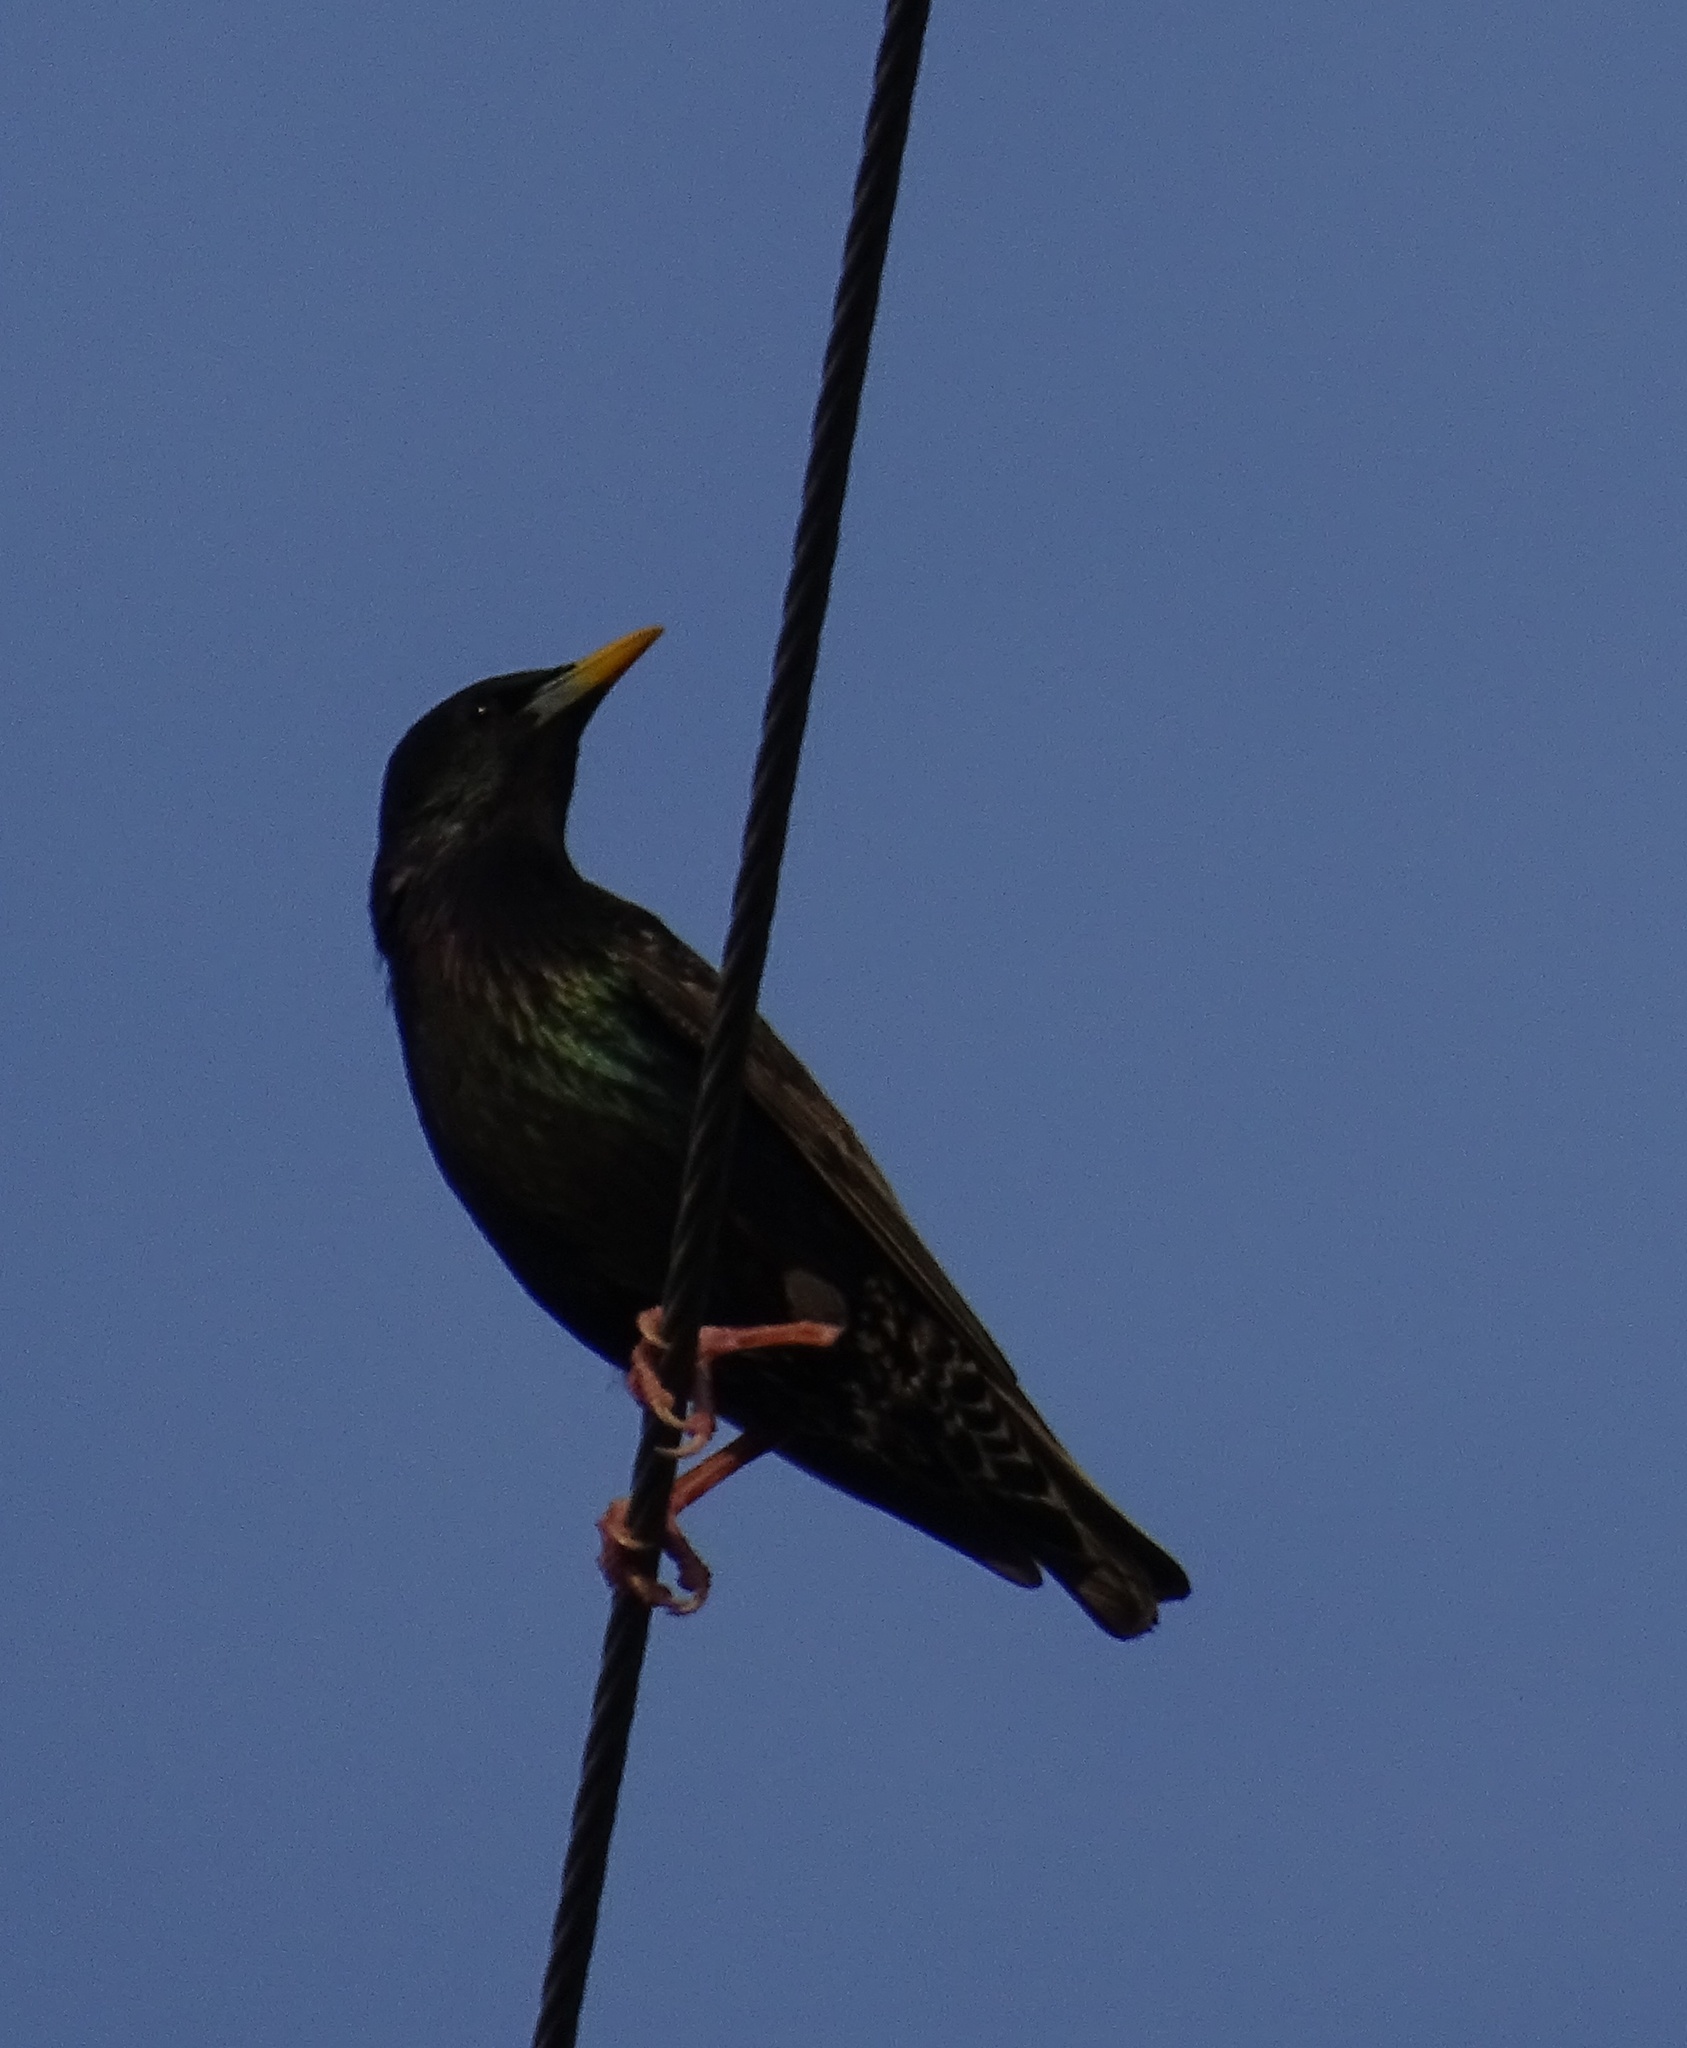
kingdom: Animalia
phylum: Chordata
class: Aves
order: Passeriformes
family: Sturnidae
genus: Sturnus
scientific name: Sturnus vulgaris
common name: Common starling
